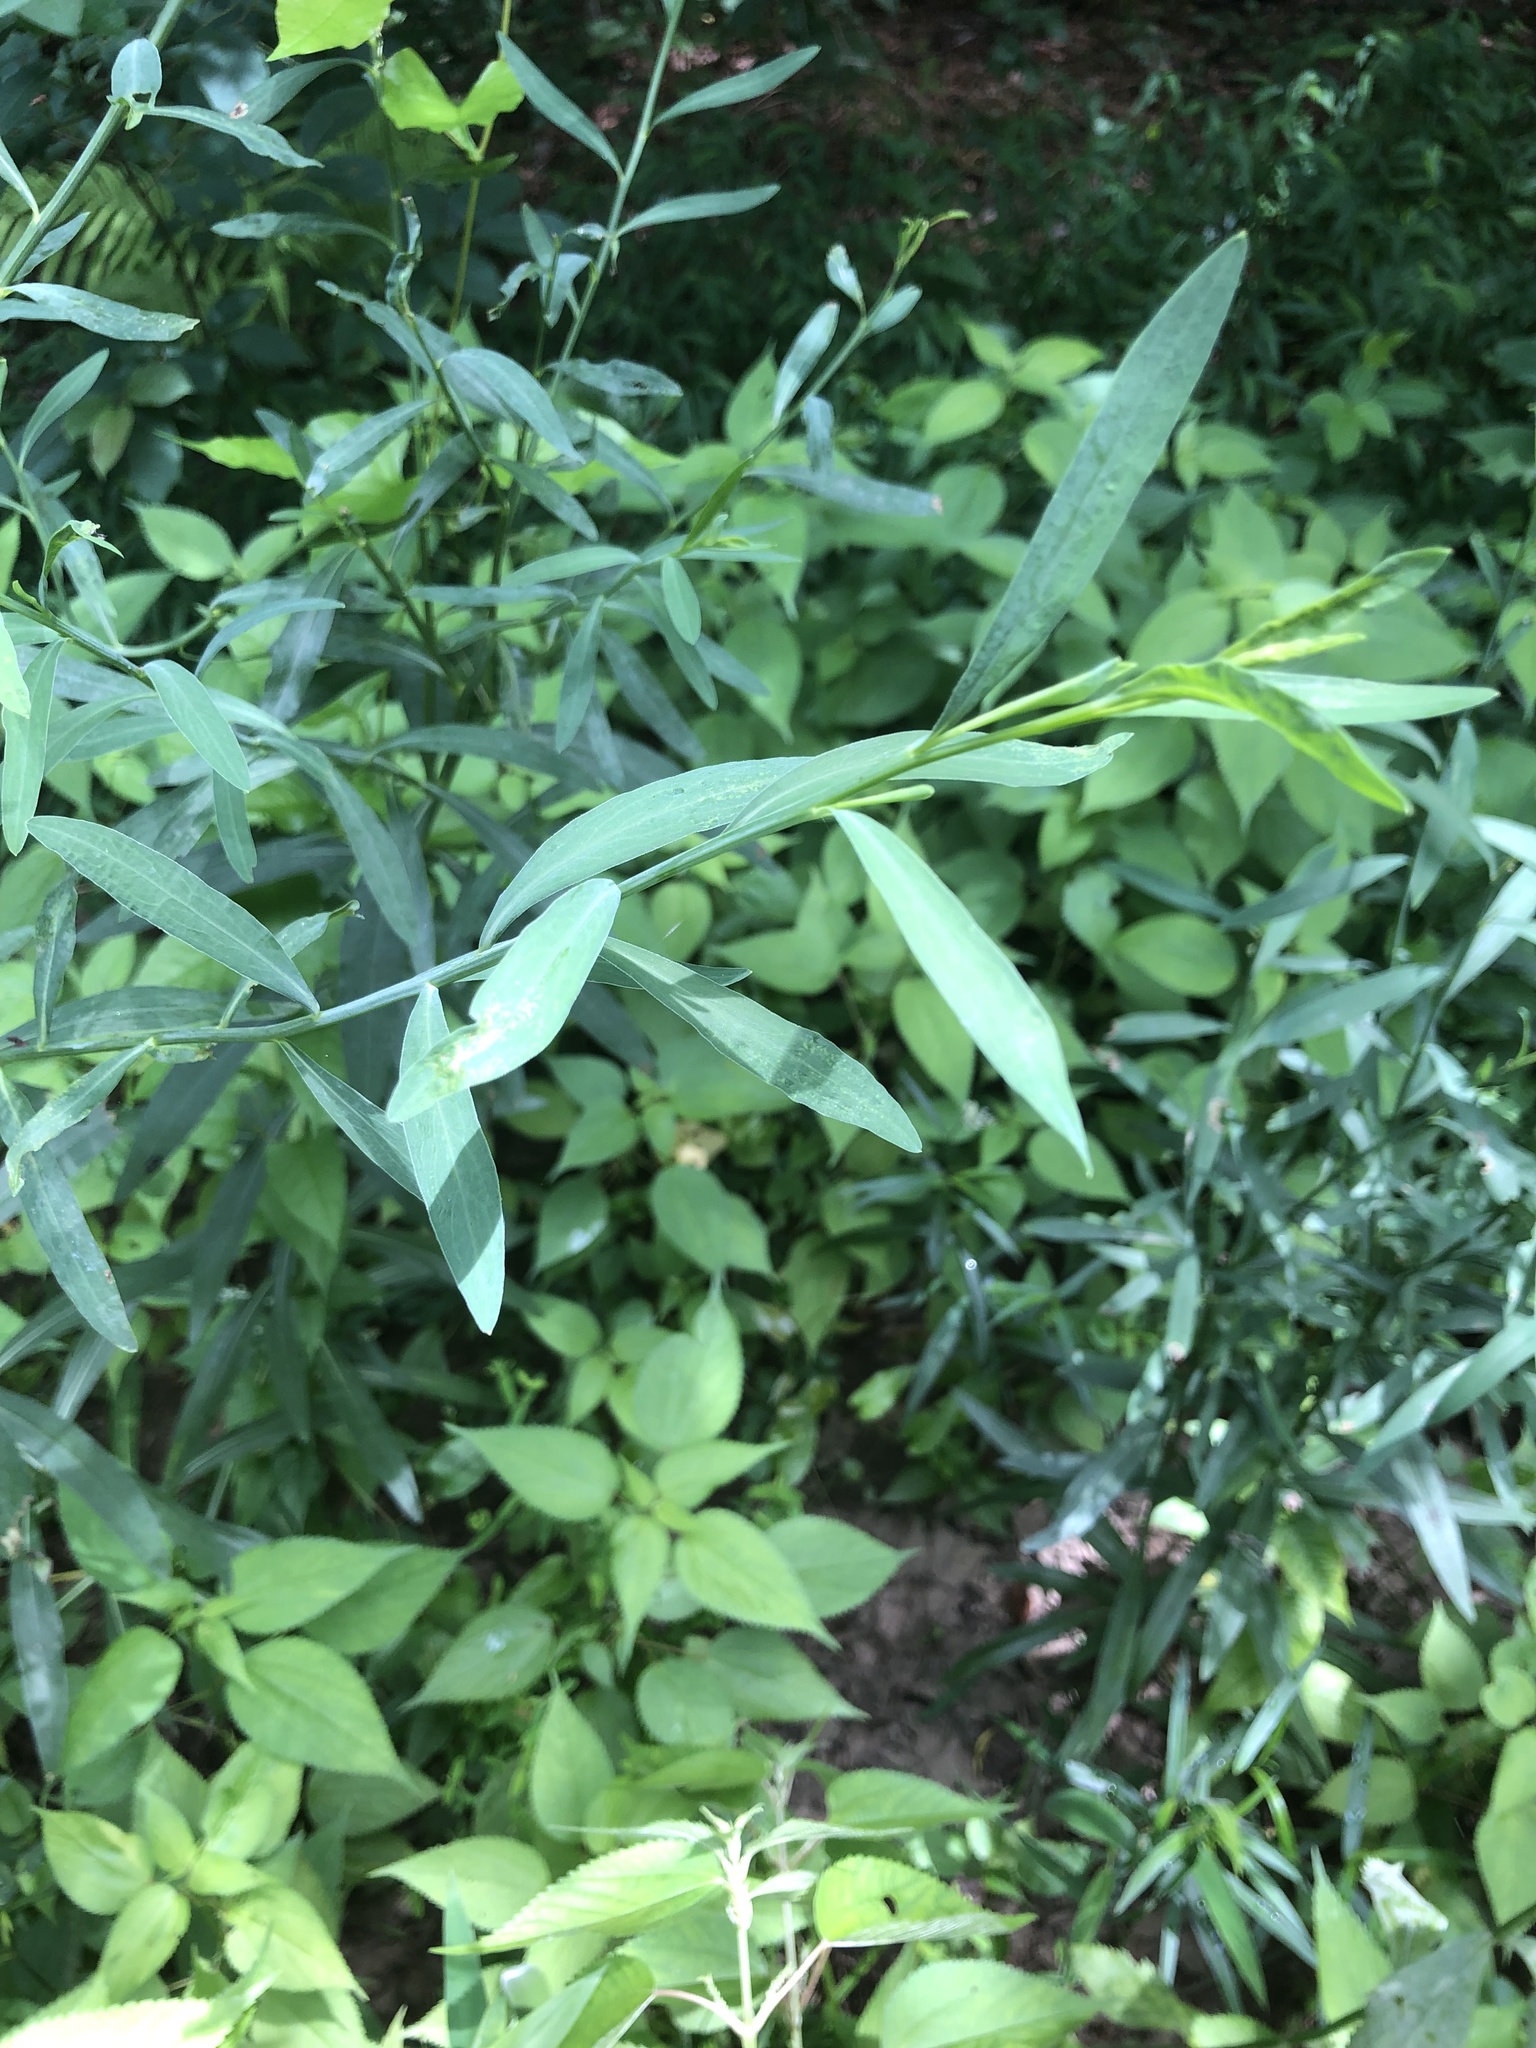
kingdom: Plantae
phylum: Tracheophyta
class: Magnoliopsida
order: Asterales
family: Asteraceae
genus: Boltonia
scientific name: Boltonia asteroides
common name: False chamomile
